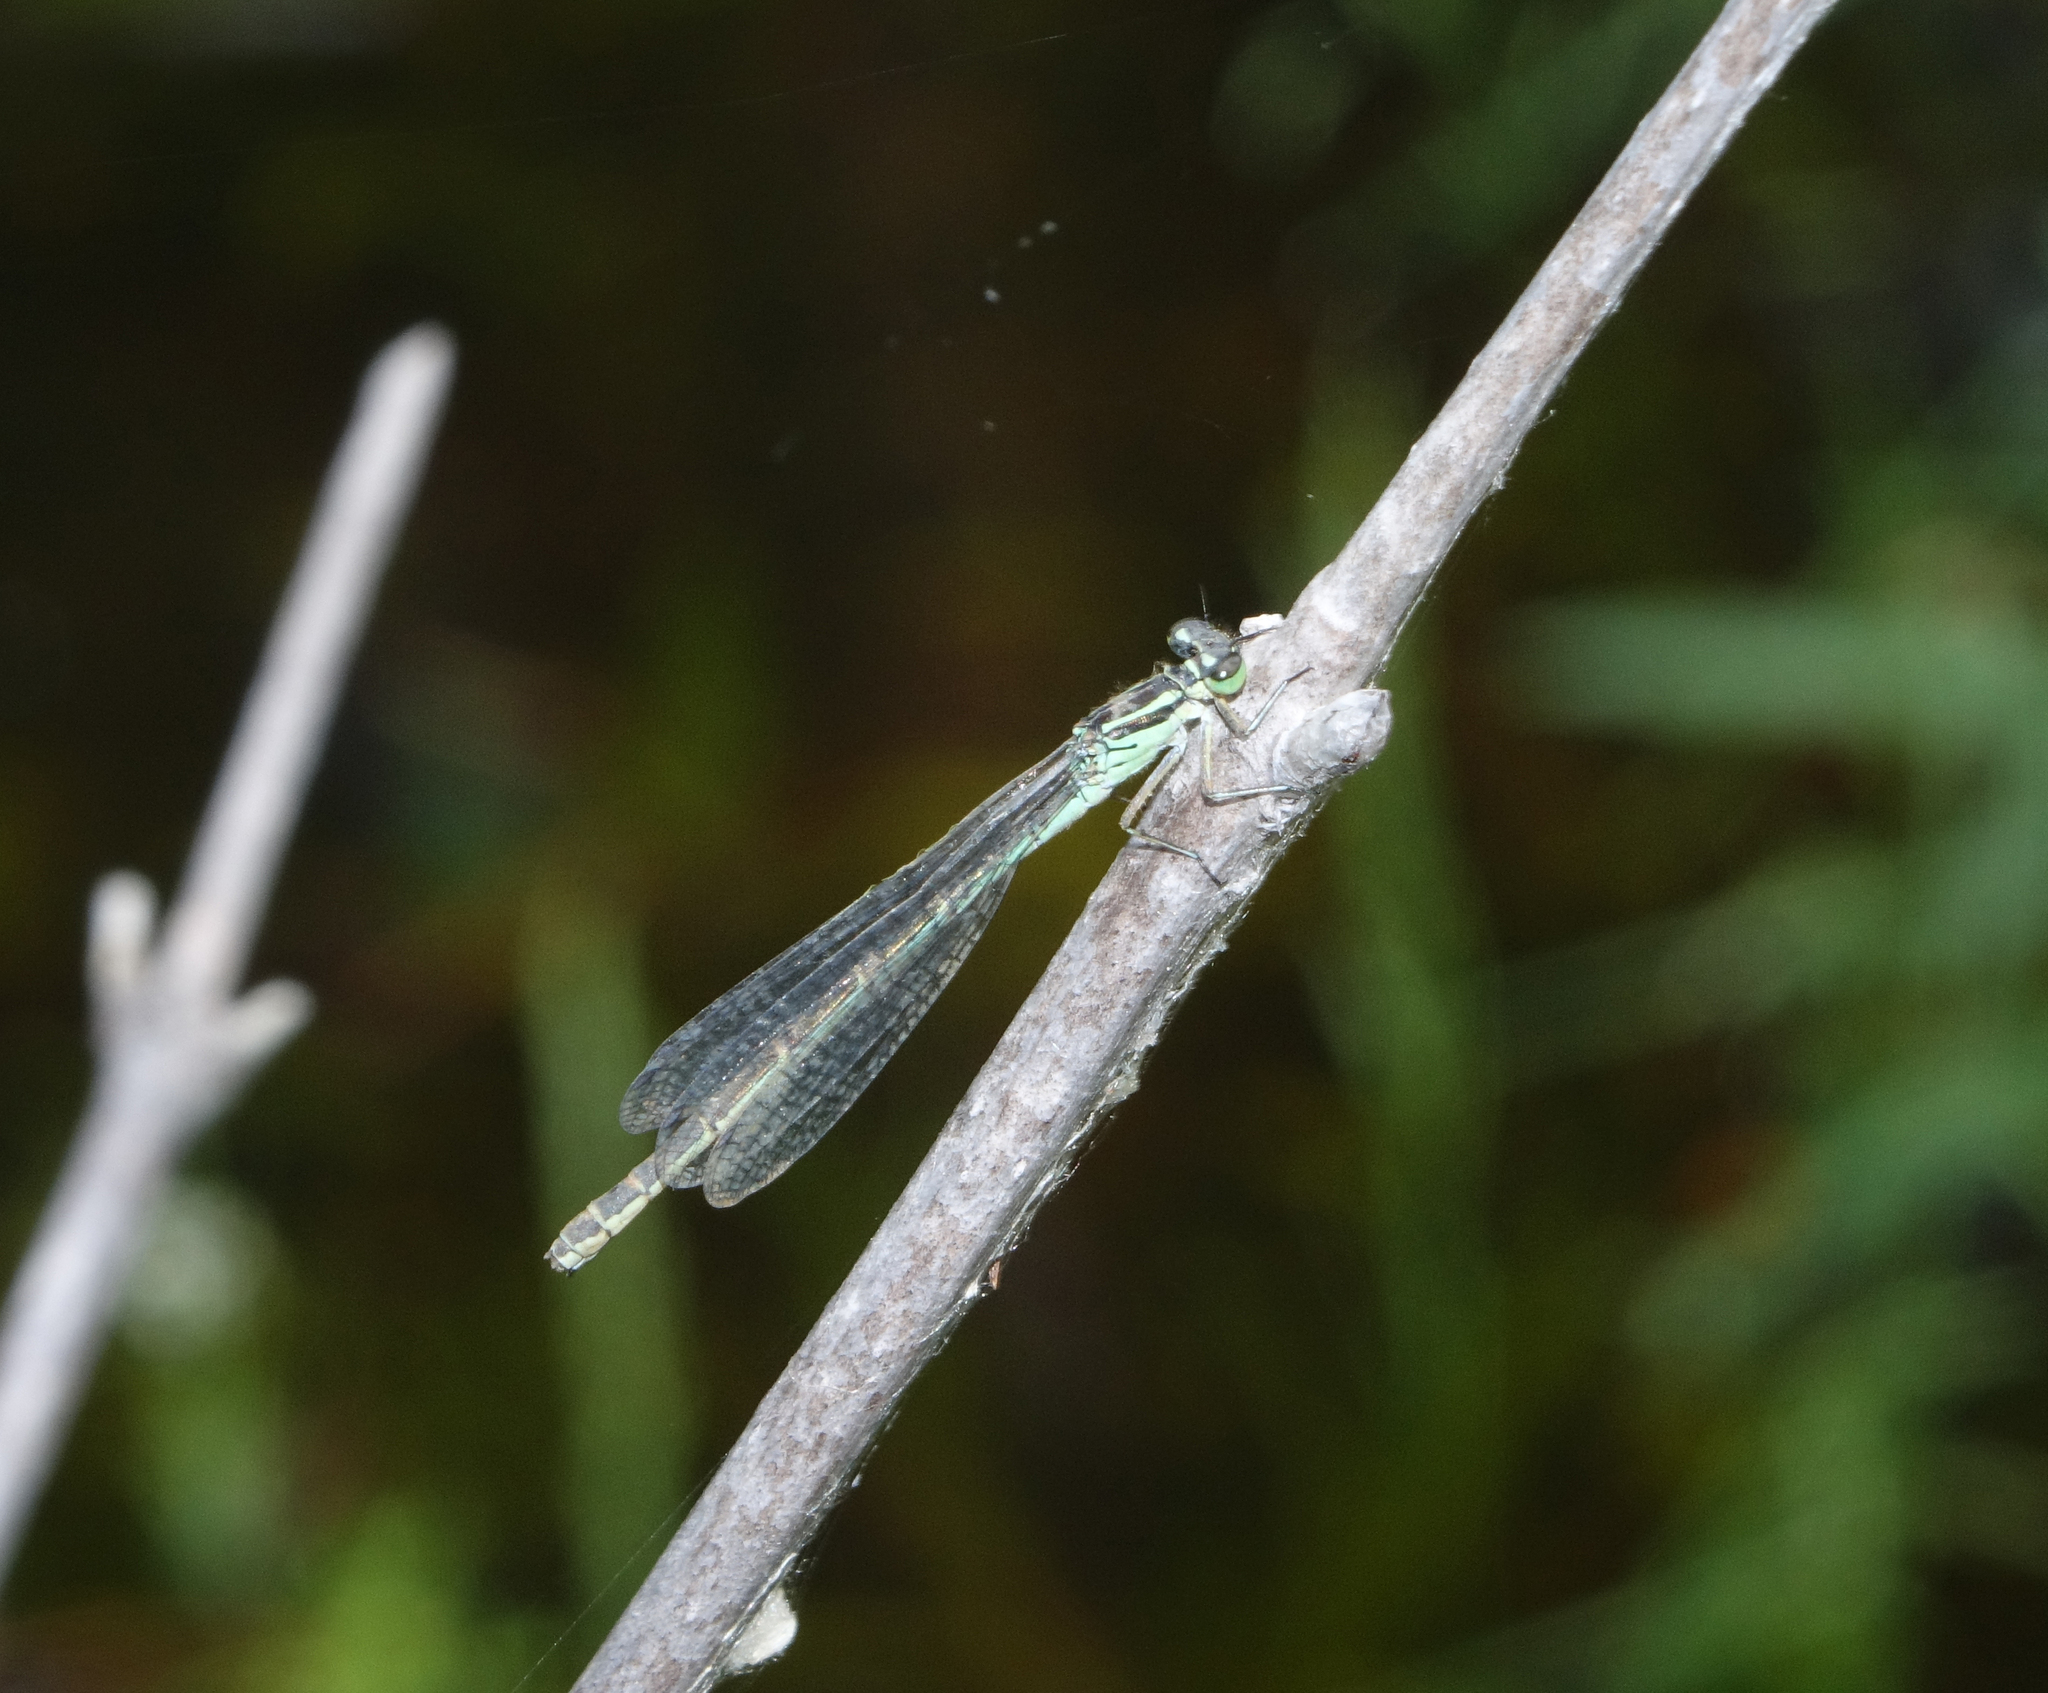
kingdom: Animalia
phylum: Arthropoda
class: Insecta
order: Odonata
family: Coenagrionidae
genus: Coenagrion
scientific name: Coenagrion hastulatum
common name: Spearhead bluet
